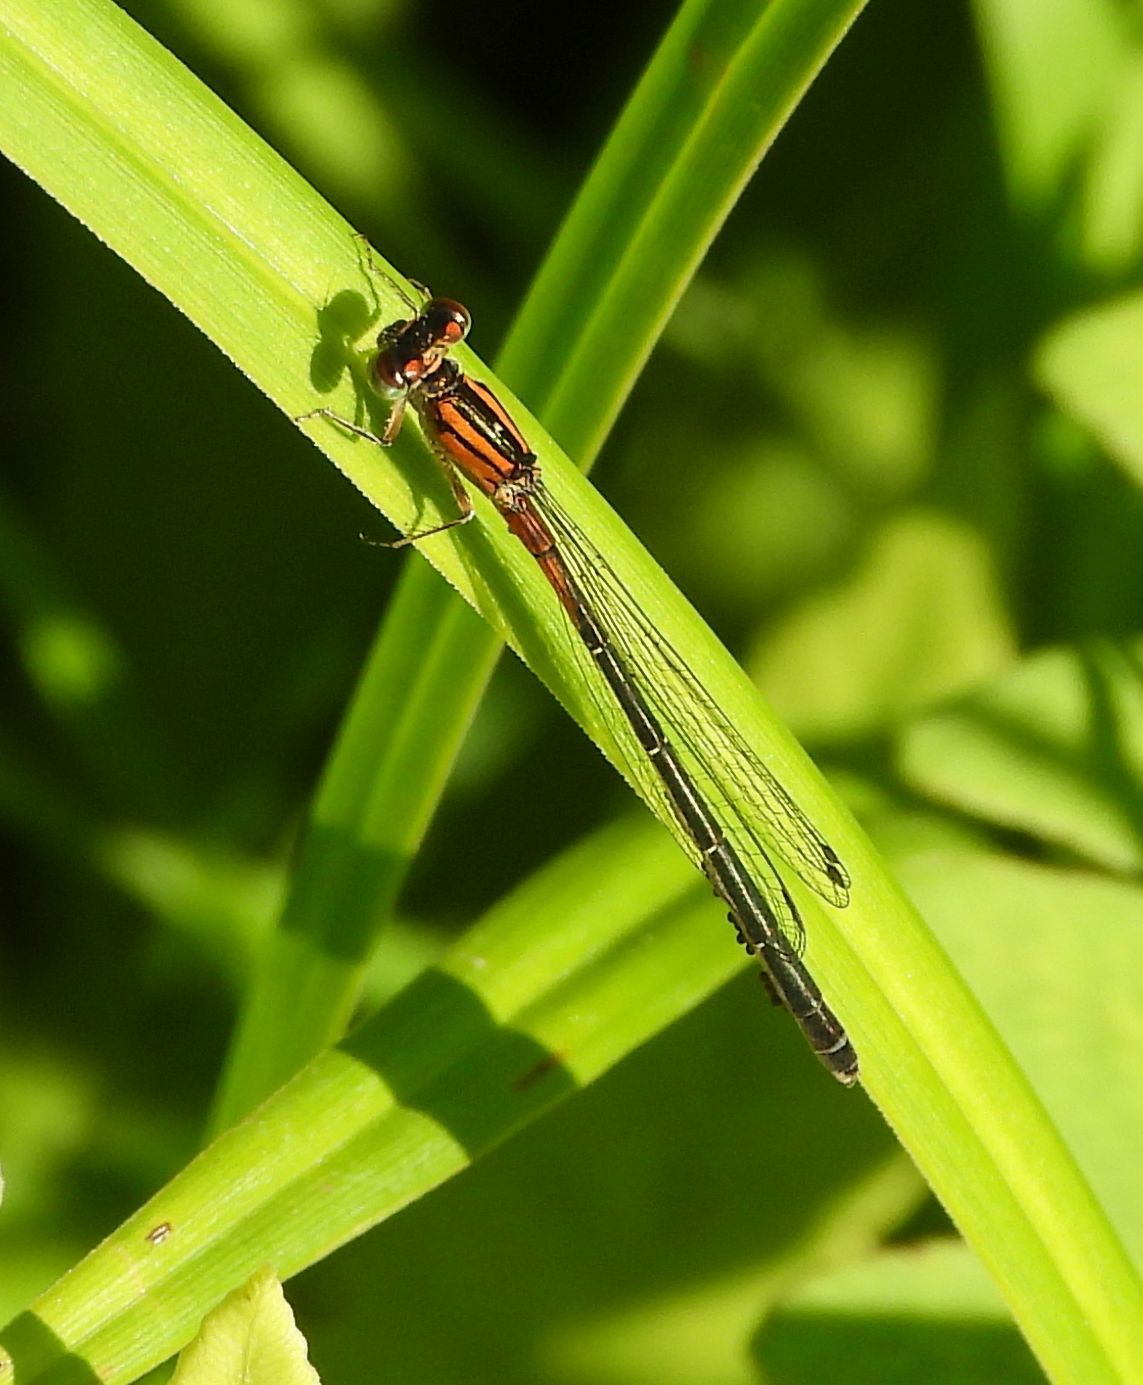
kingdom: Animalia
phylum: Arthropoda
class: Insecta
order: Odonata
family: Coenagrionidae
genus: Ischnura
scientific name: Ischnura verticalis
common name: Eastern forktail
